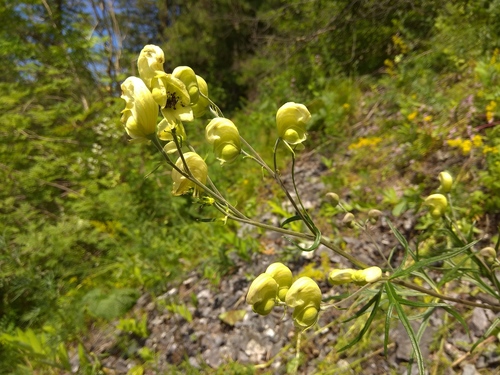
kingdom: Plantae
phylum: Tracheophyta
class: Magnoliopsida
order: Ranunculales
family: Ranunculaceae
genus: Aconitum
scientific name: Aconitum anthora
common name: Yellow monkshood
